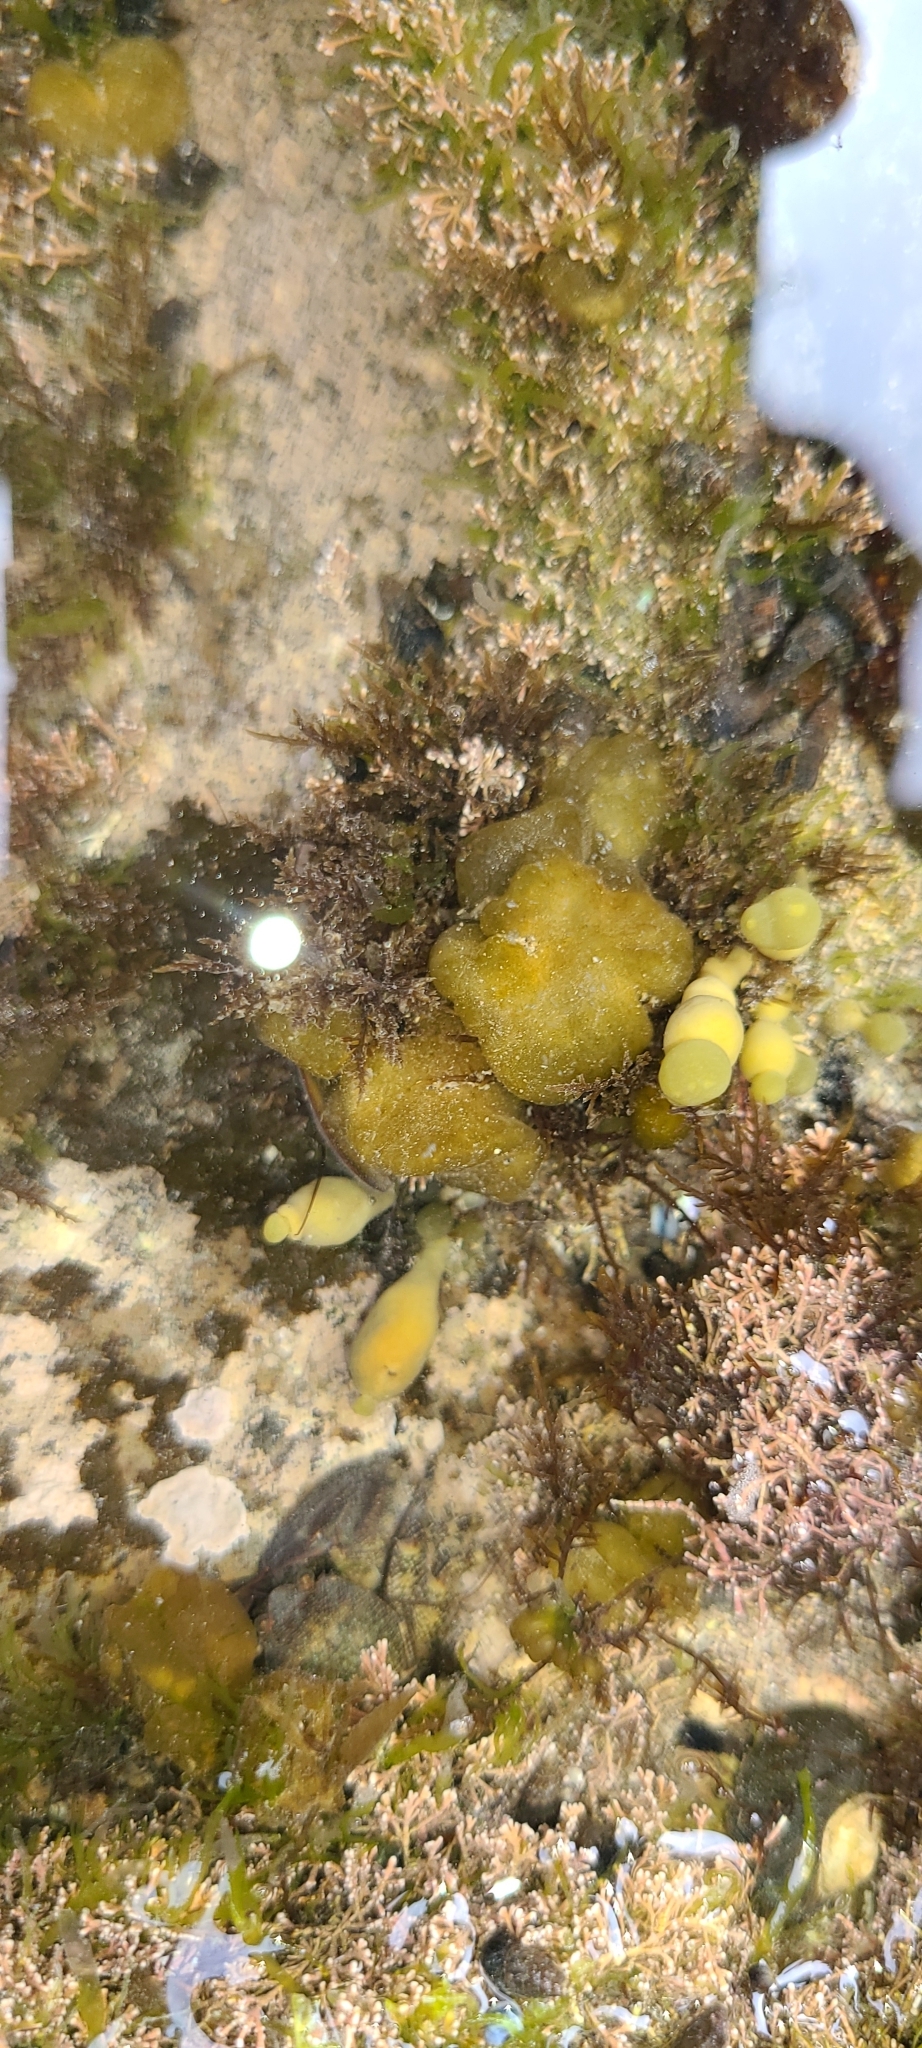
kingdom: Chromista
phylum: Ochrophyta
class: Phaeophyceae
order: Ectocarpales
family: Chordariaceae
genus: Leathesia
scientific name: Leathesia marina
